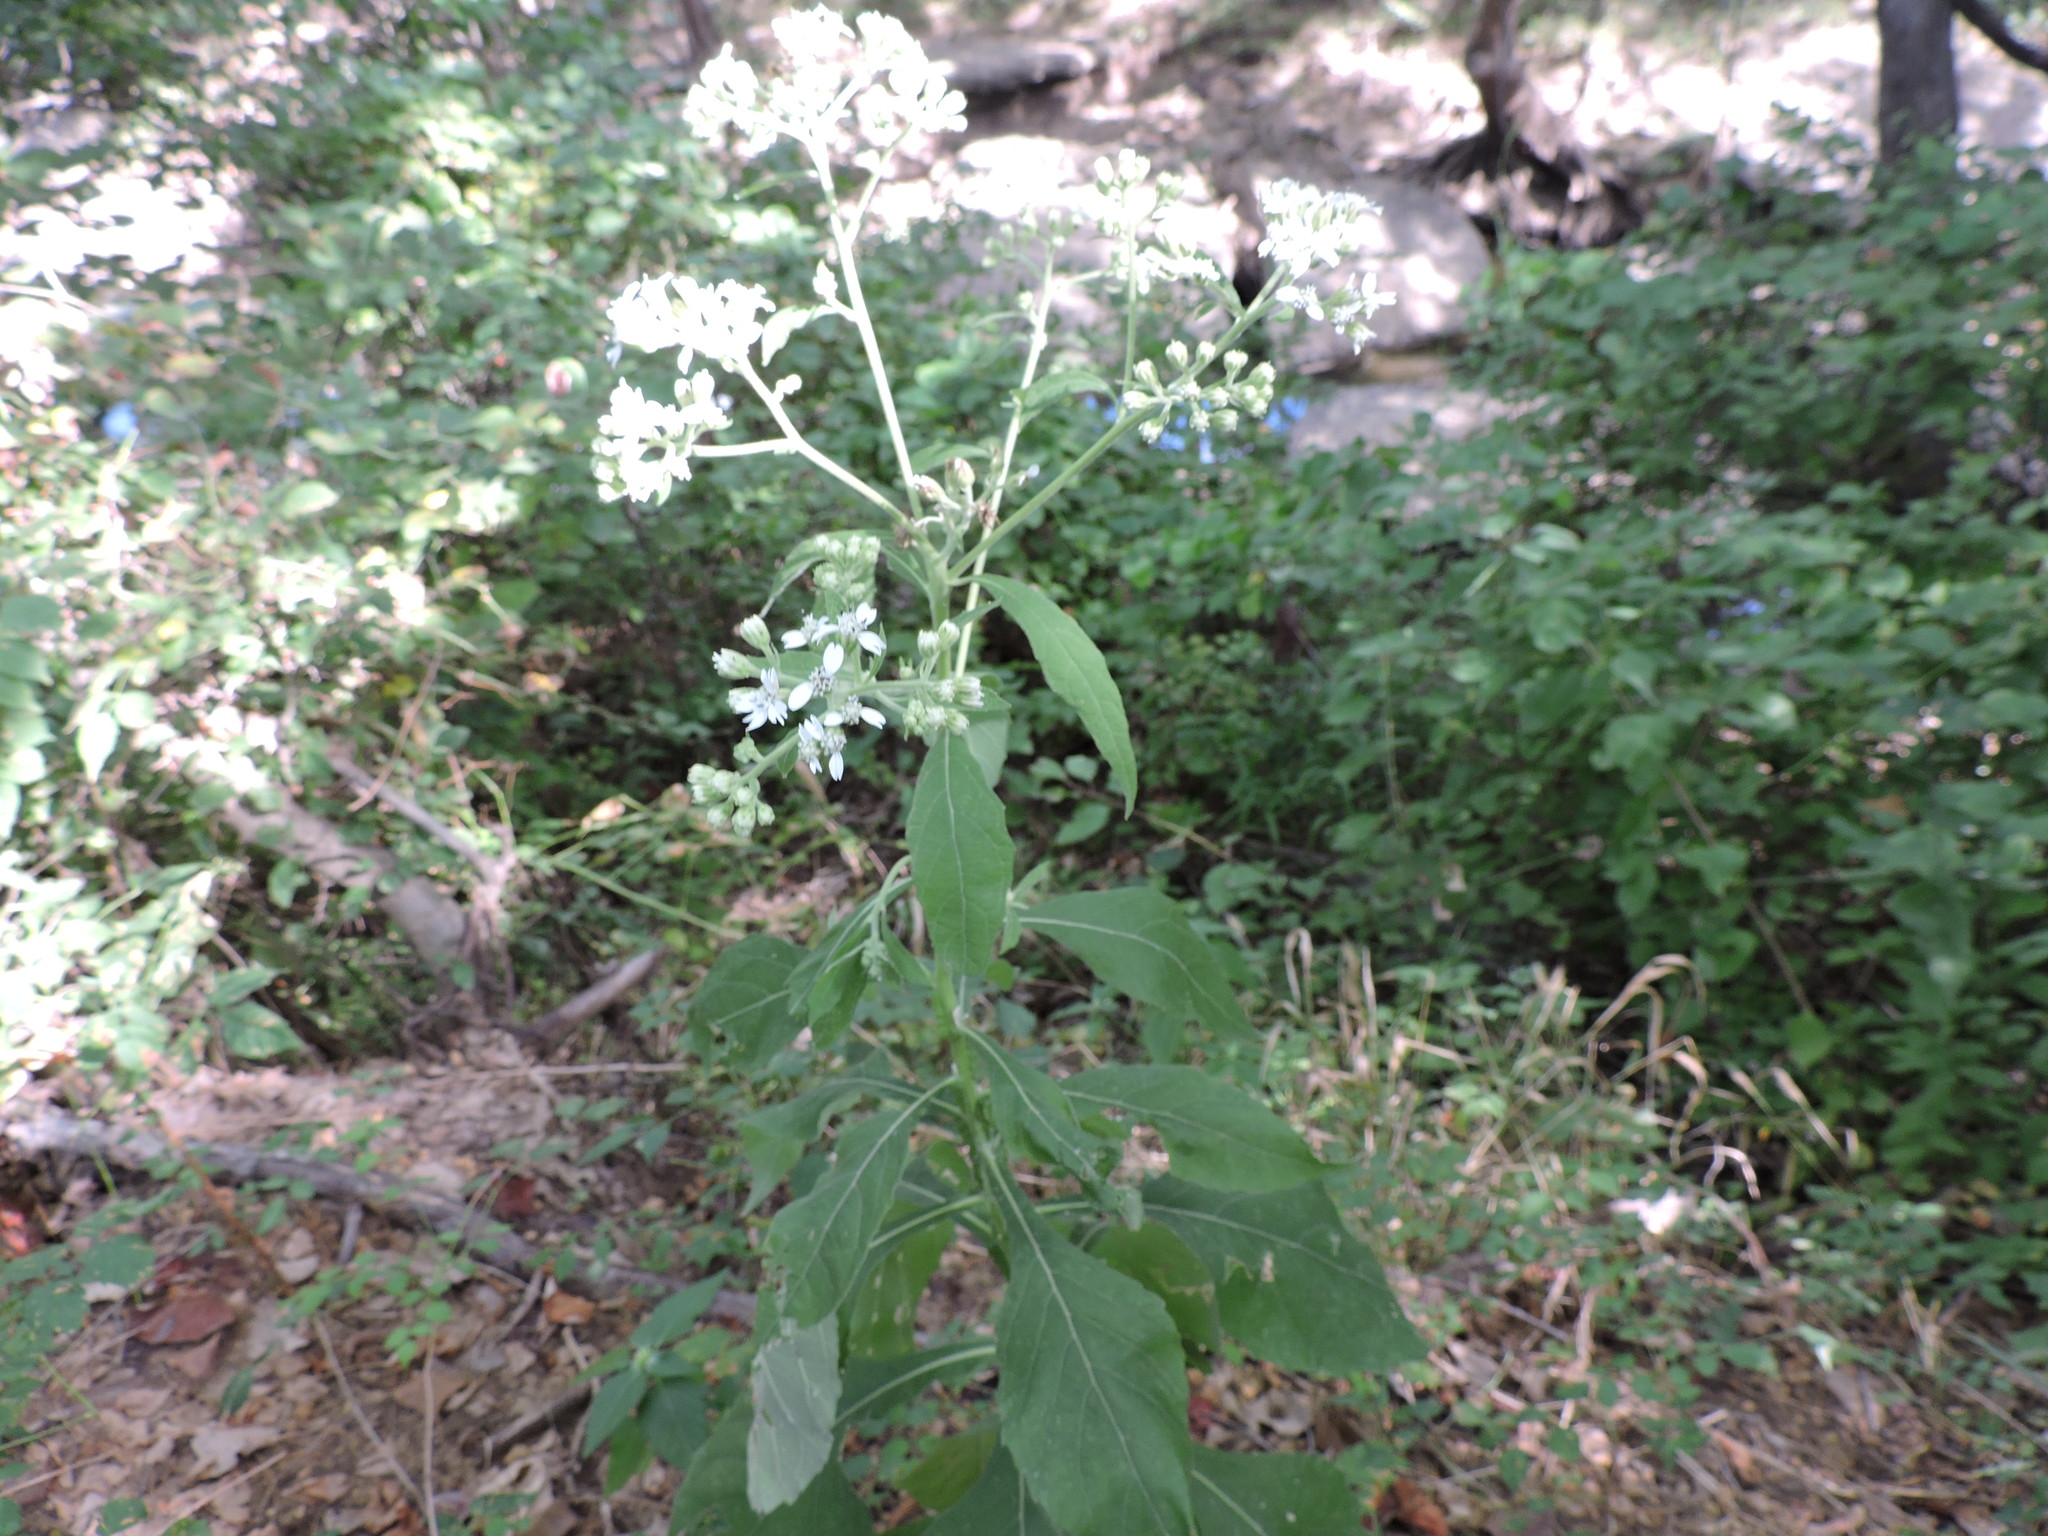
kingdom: Plantae
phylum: Tracheophyta
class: Magnoliopsida
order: Asterales
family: Asteraceae
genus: Verbesina
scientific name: Verbesina virginica
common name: Frostweed
